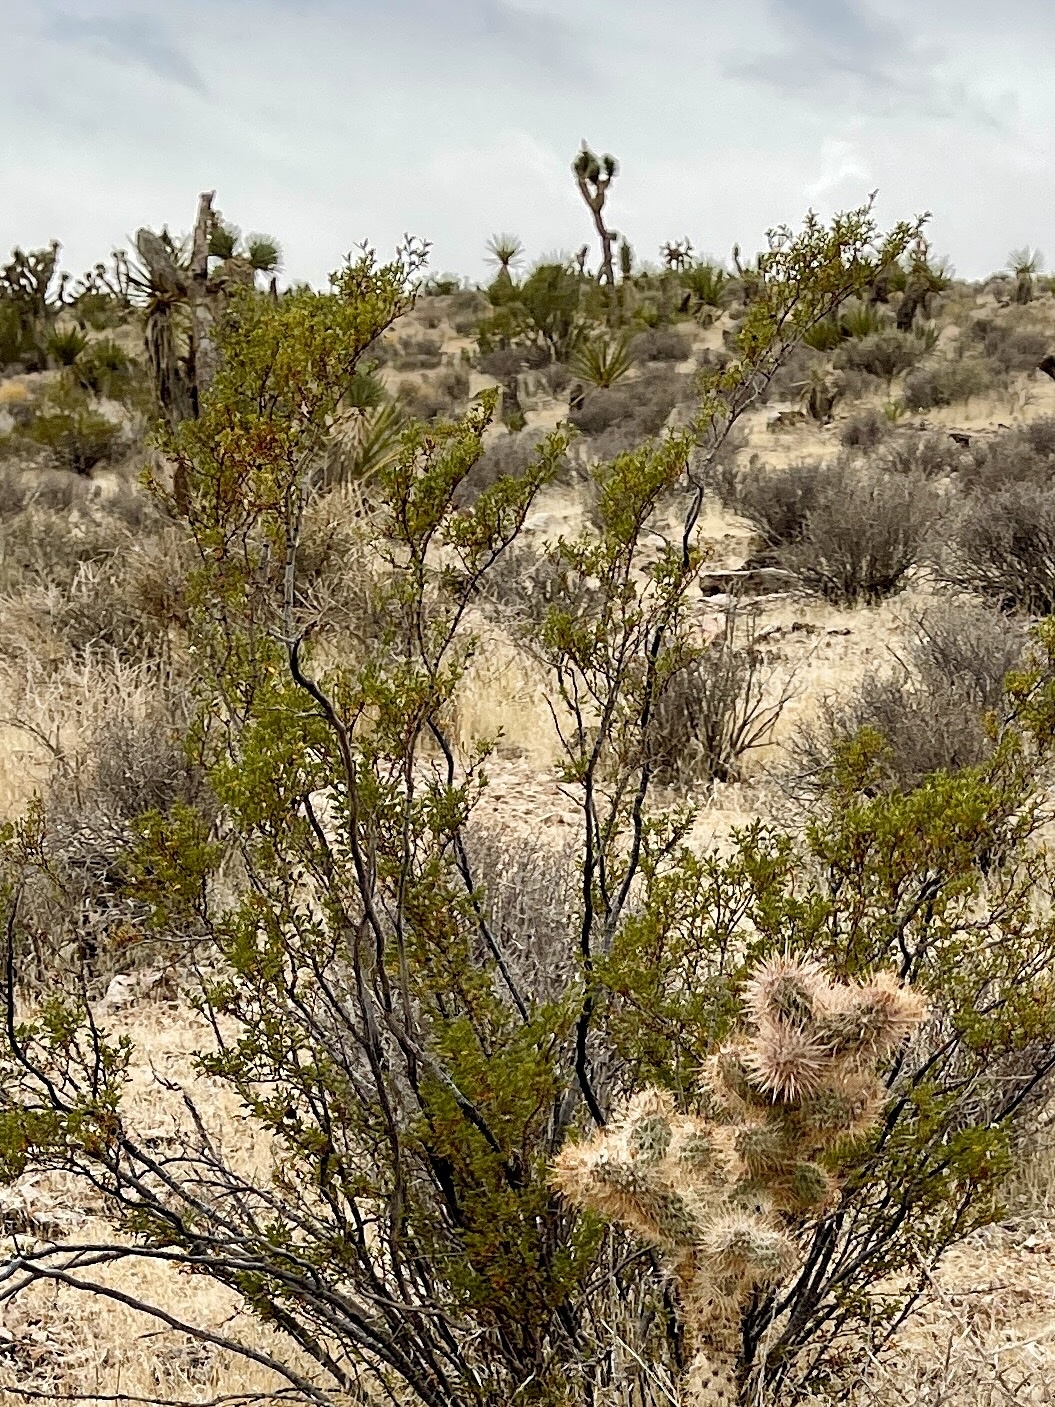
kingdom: Plantae
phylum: Tracheophyta
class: Magnoliopsida
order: Zygophyllales
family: Zygophyllaceae
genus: Larrea
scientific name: Larrea tridentata
